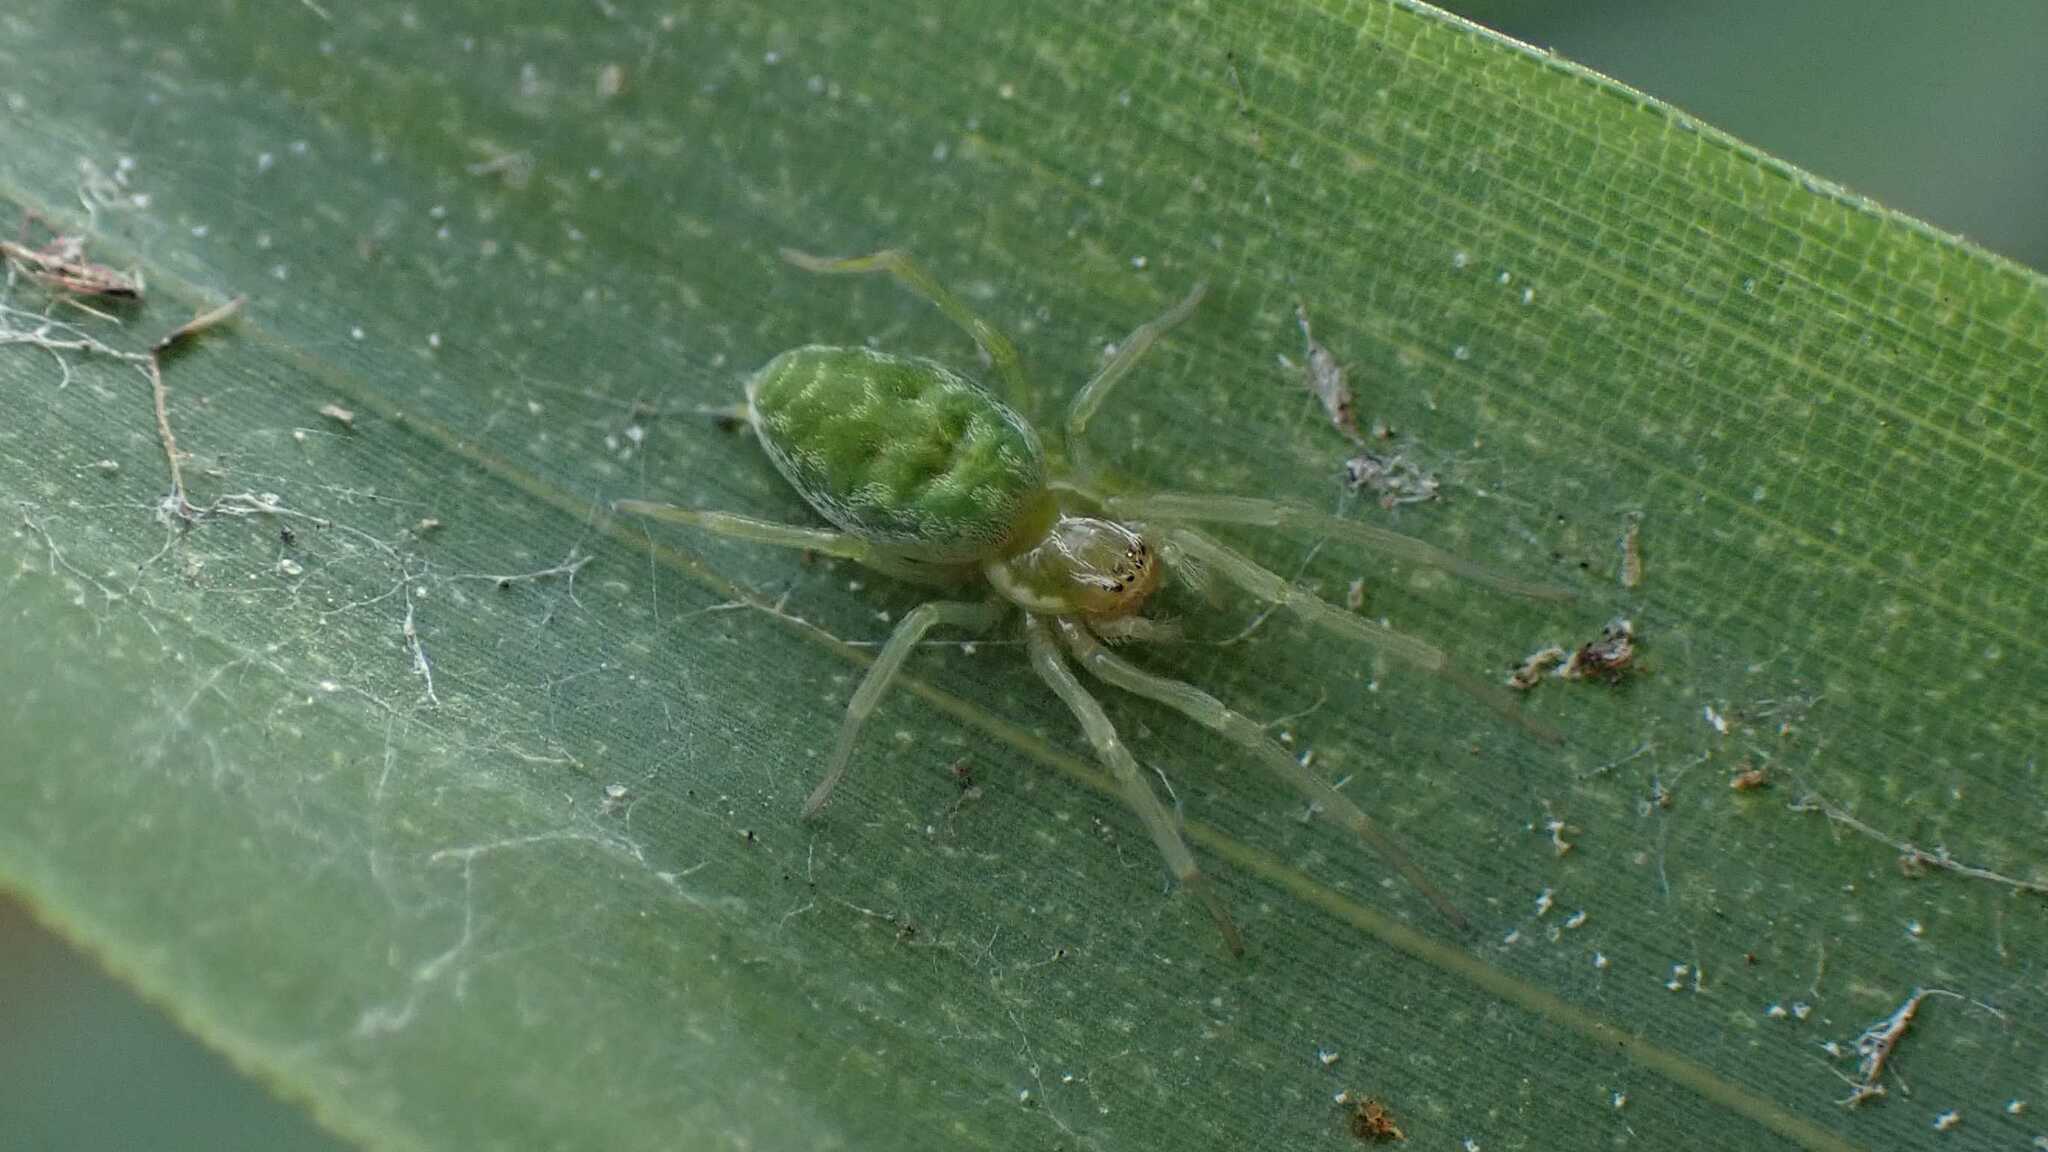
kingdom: Animalia
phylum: Arthropoda
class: Arachnida
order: Araneae
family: Dictynidae
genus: Nigma
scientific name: Nigma walckenaeri
